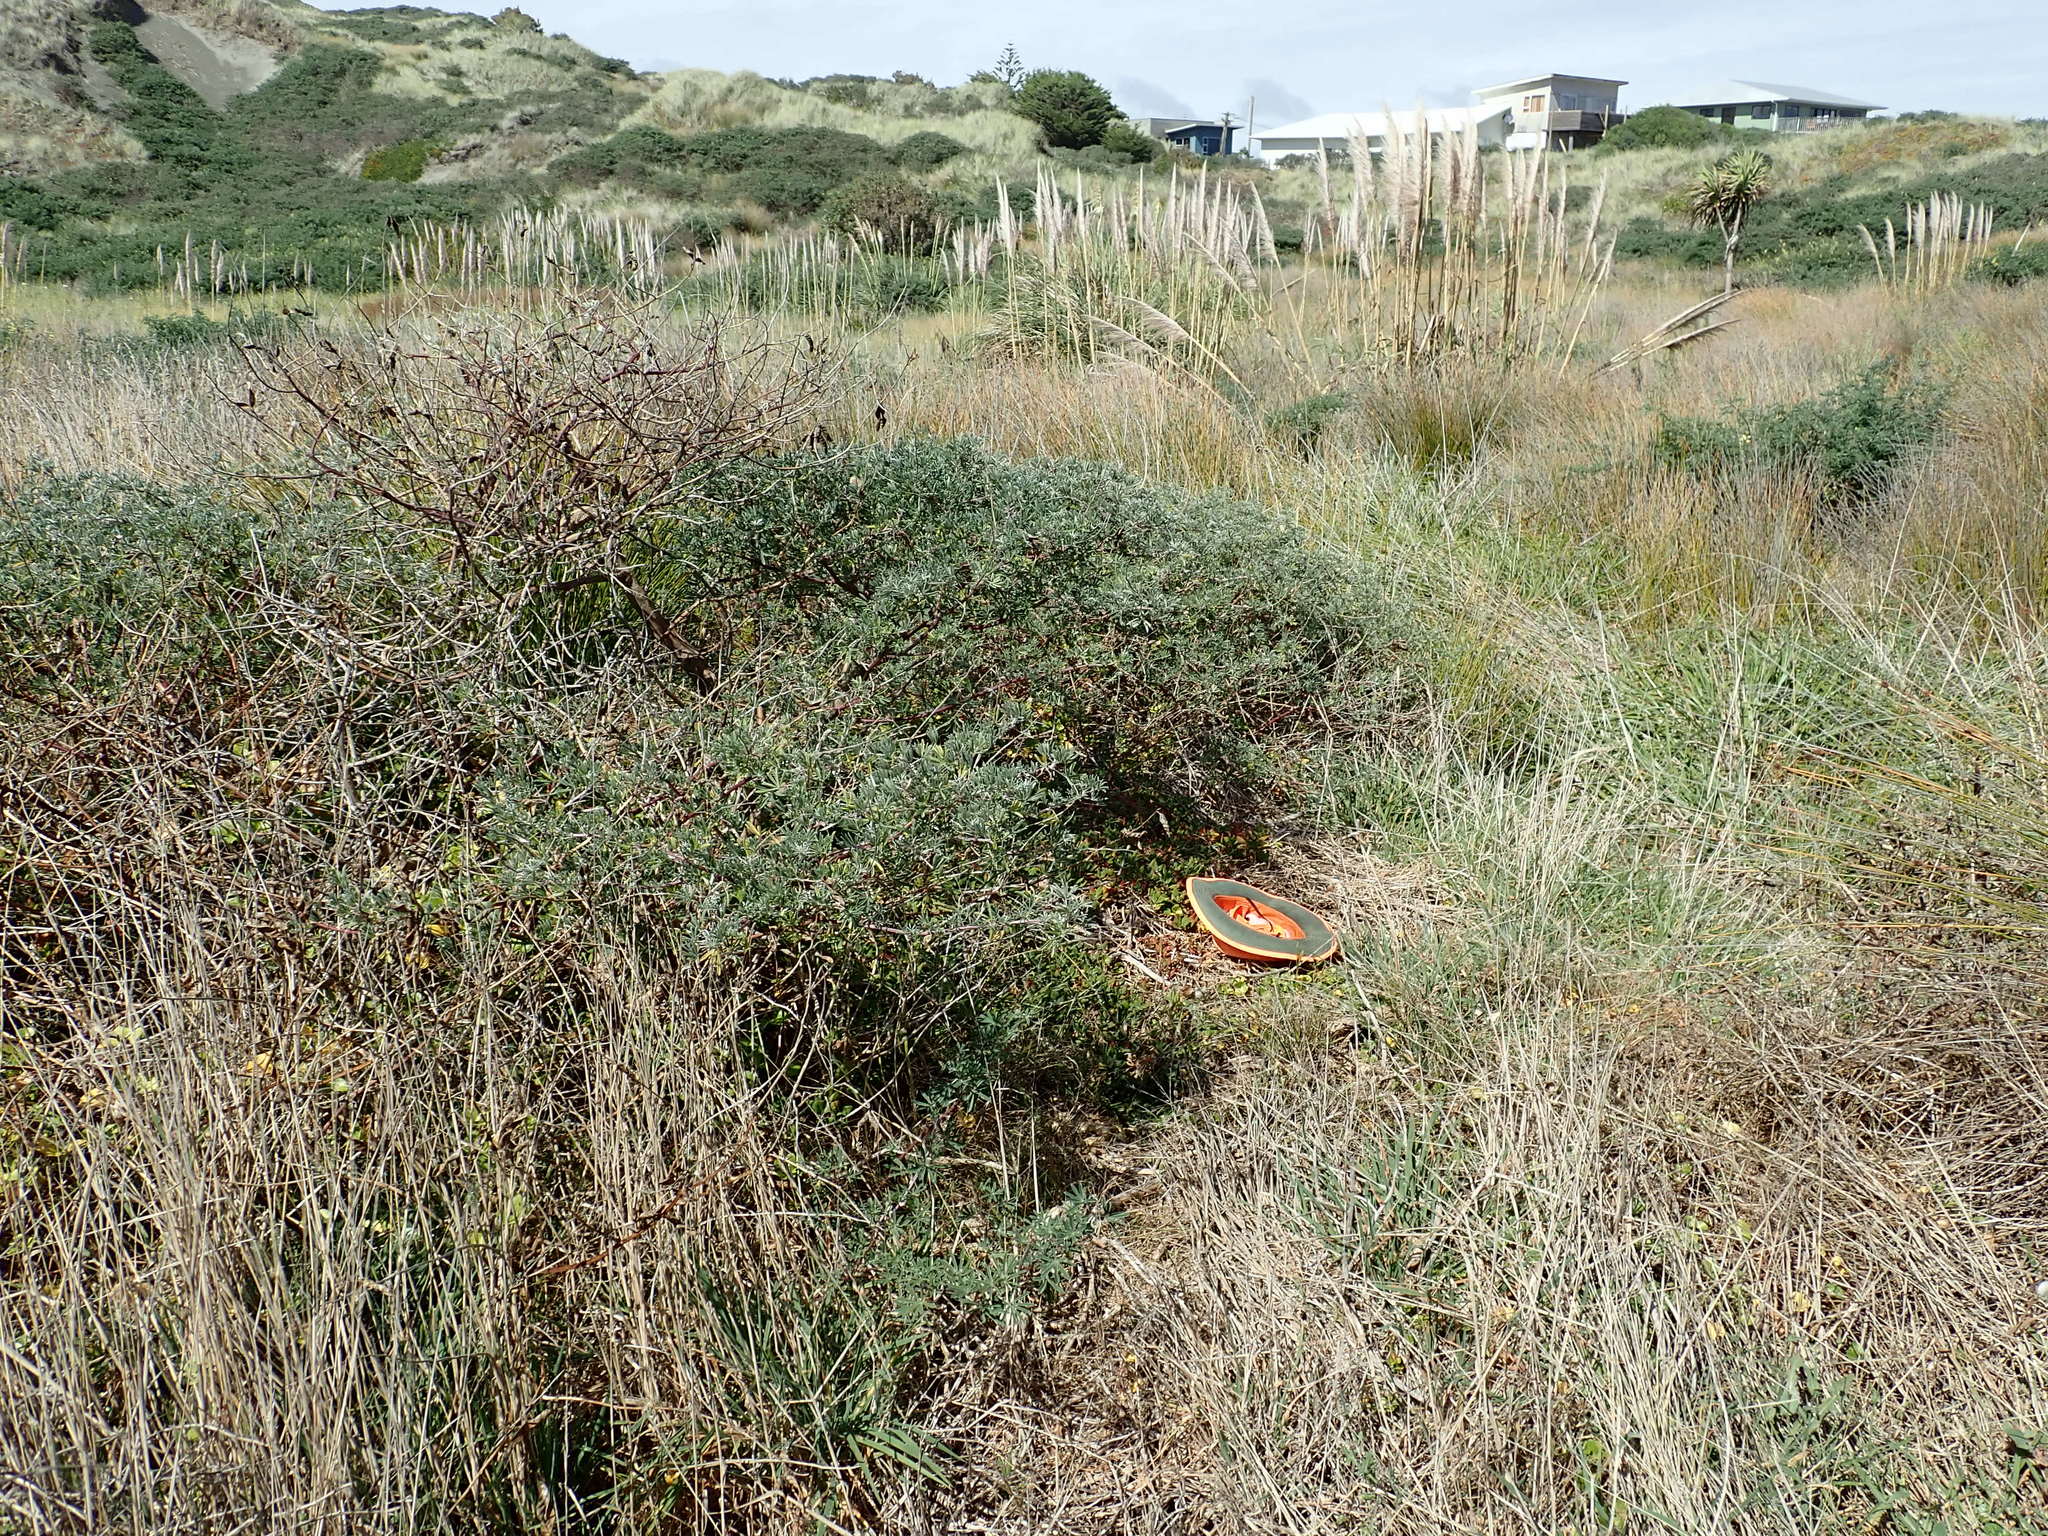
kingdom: Plantae
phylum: Tracheophyta
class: Magnoliopsida
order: Caryophyllales
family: Aizoaceae
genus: Tetragonia
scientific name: Tetragonia implexicoma
